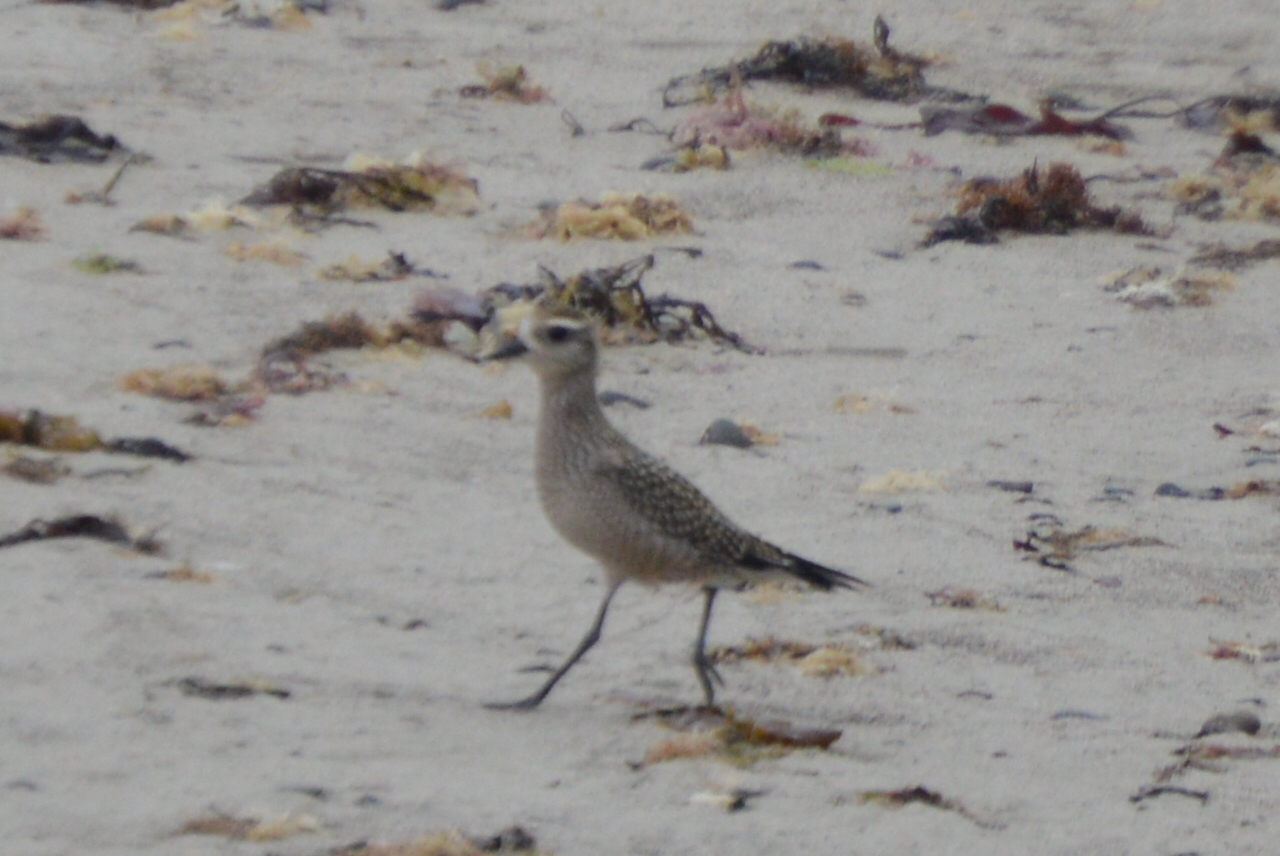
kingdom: Animalia
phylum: Chordata
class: Aves
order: Charadriiformes
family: Charadriidae
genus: Pluvialis
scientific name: Pluvialis dominica
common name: American golden plover
